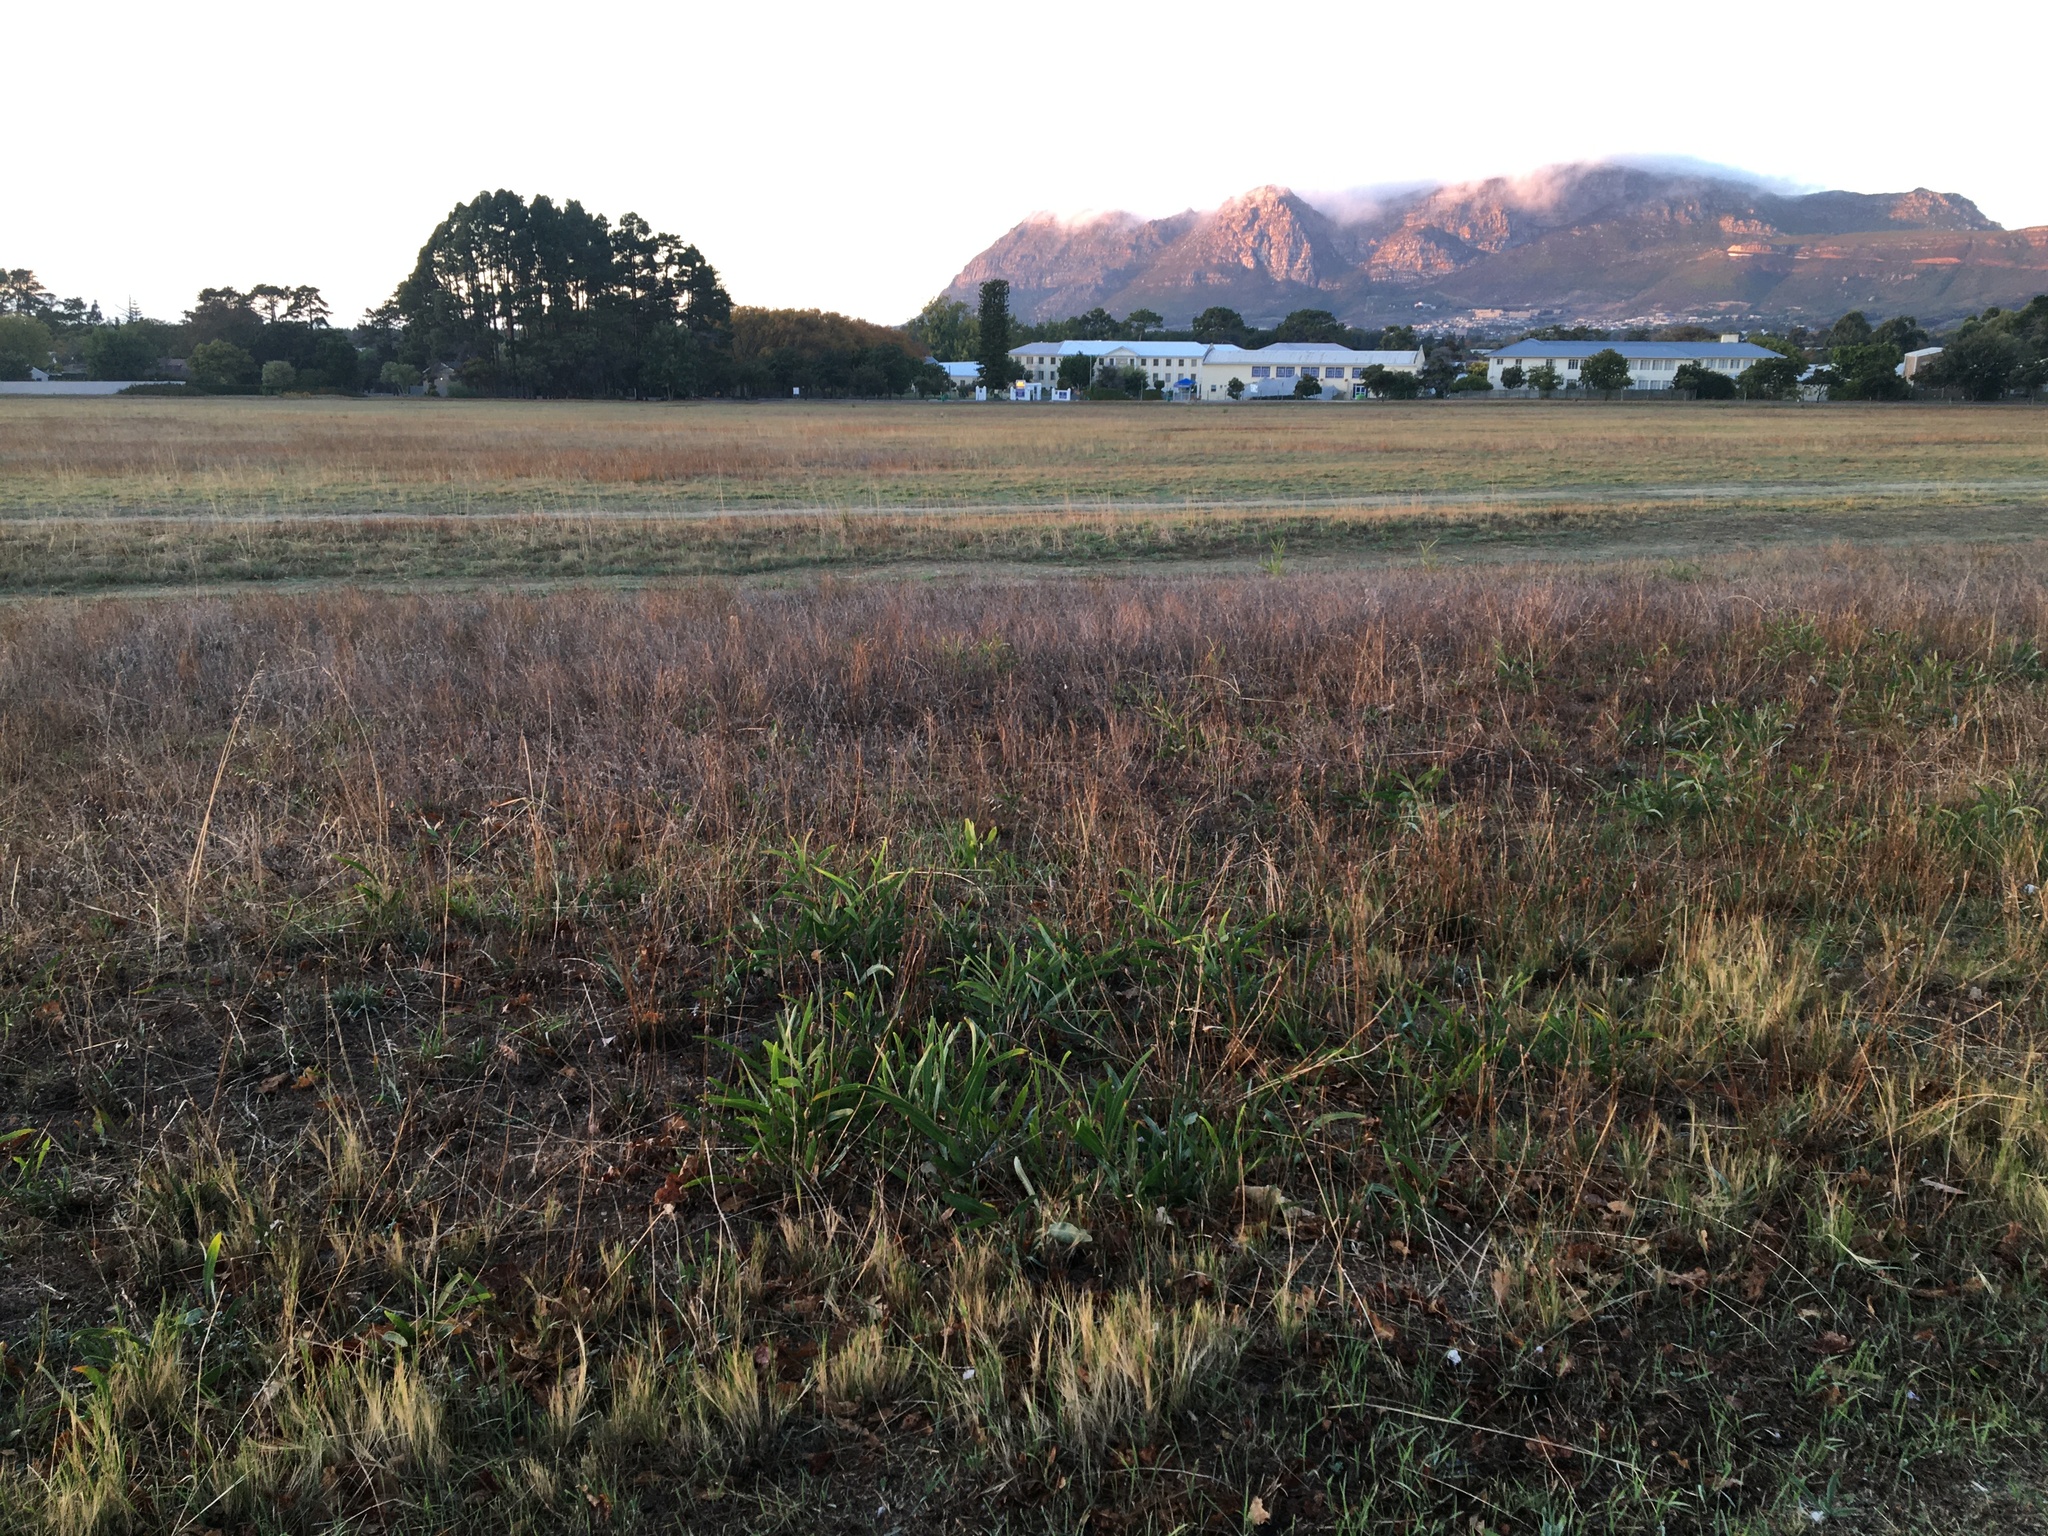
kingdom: Plantae
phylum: Tracheophyta
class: Magnoliopsida
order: Fabales
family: Fabaceae
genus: Acacia
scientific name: Acacia saligna
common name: Orange wattle
